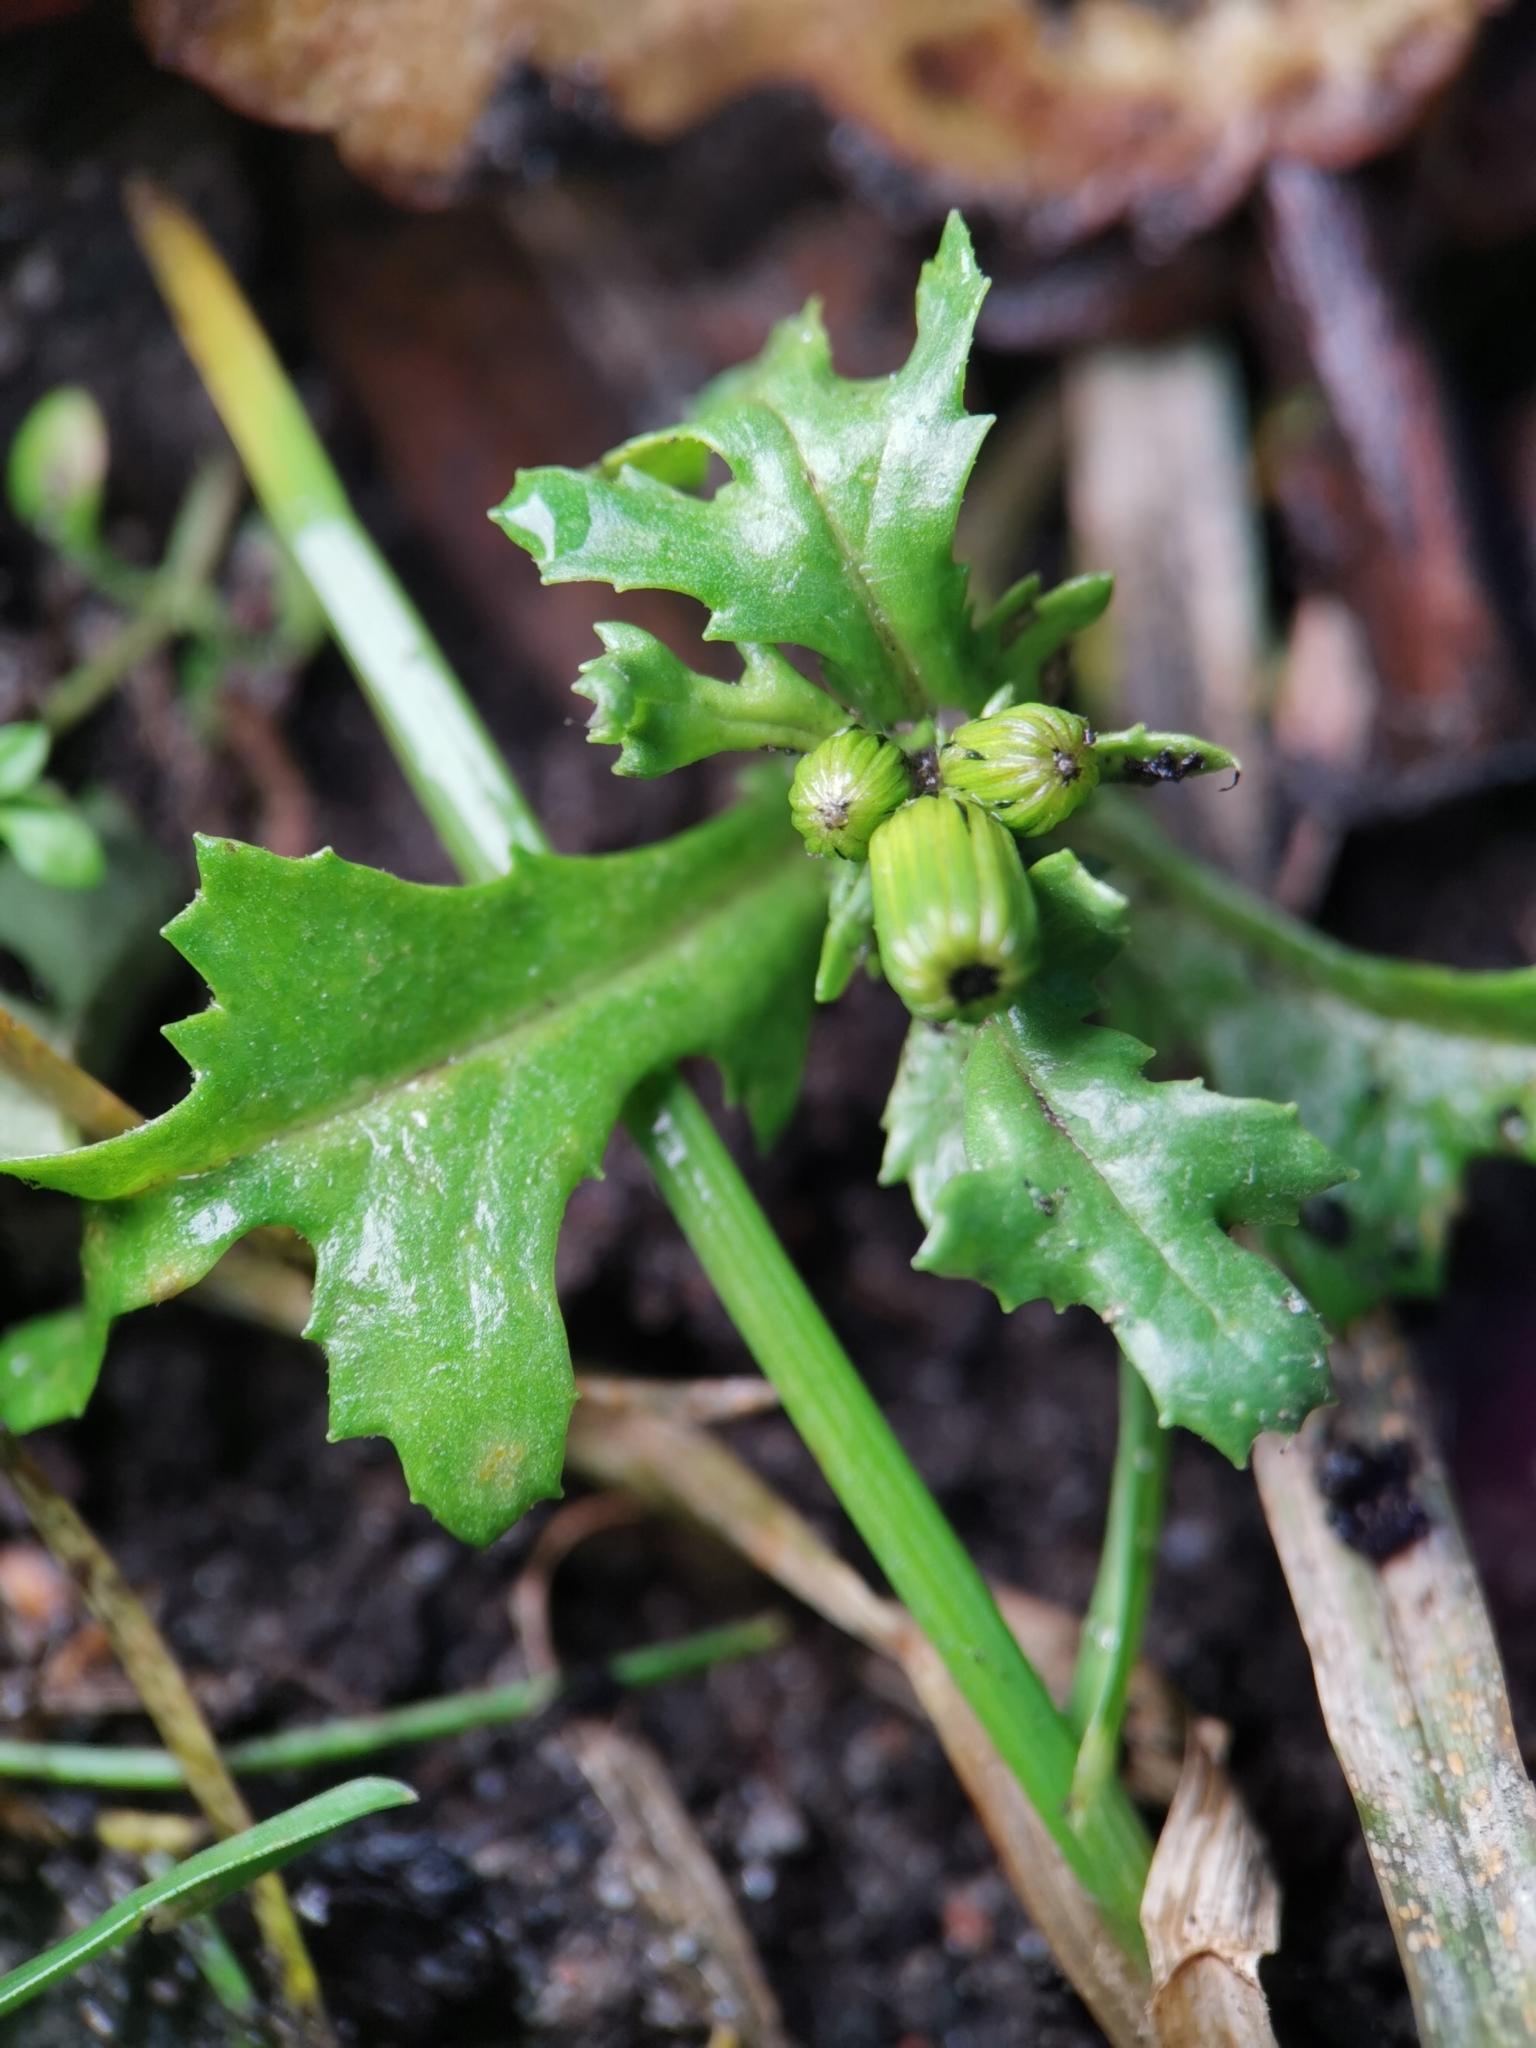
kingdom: Plantae
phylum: Tracheophyta
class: Magnoliopsida
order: Asterales
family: Asteraceae
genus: Senecio
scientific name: Senecio vulgaris
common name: Old-man-in-the-spring
